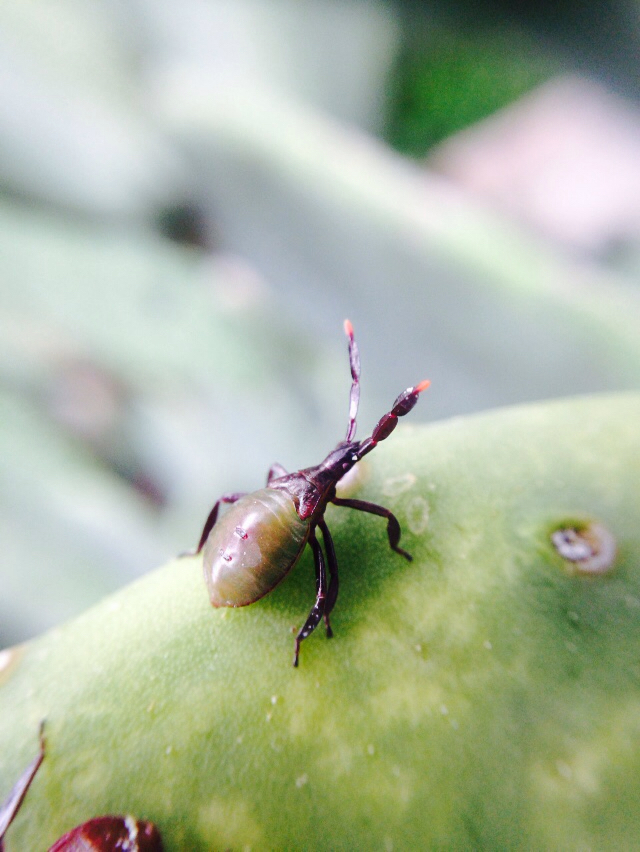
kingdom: Animalia
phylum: Arthropoda
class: Insecta
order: Hemiptera
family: Coreidae
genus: Chelinidea
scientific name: Chelinidea vittiger
